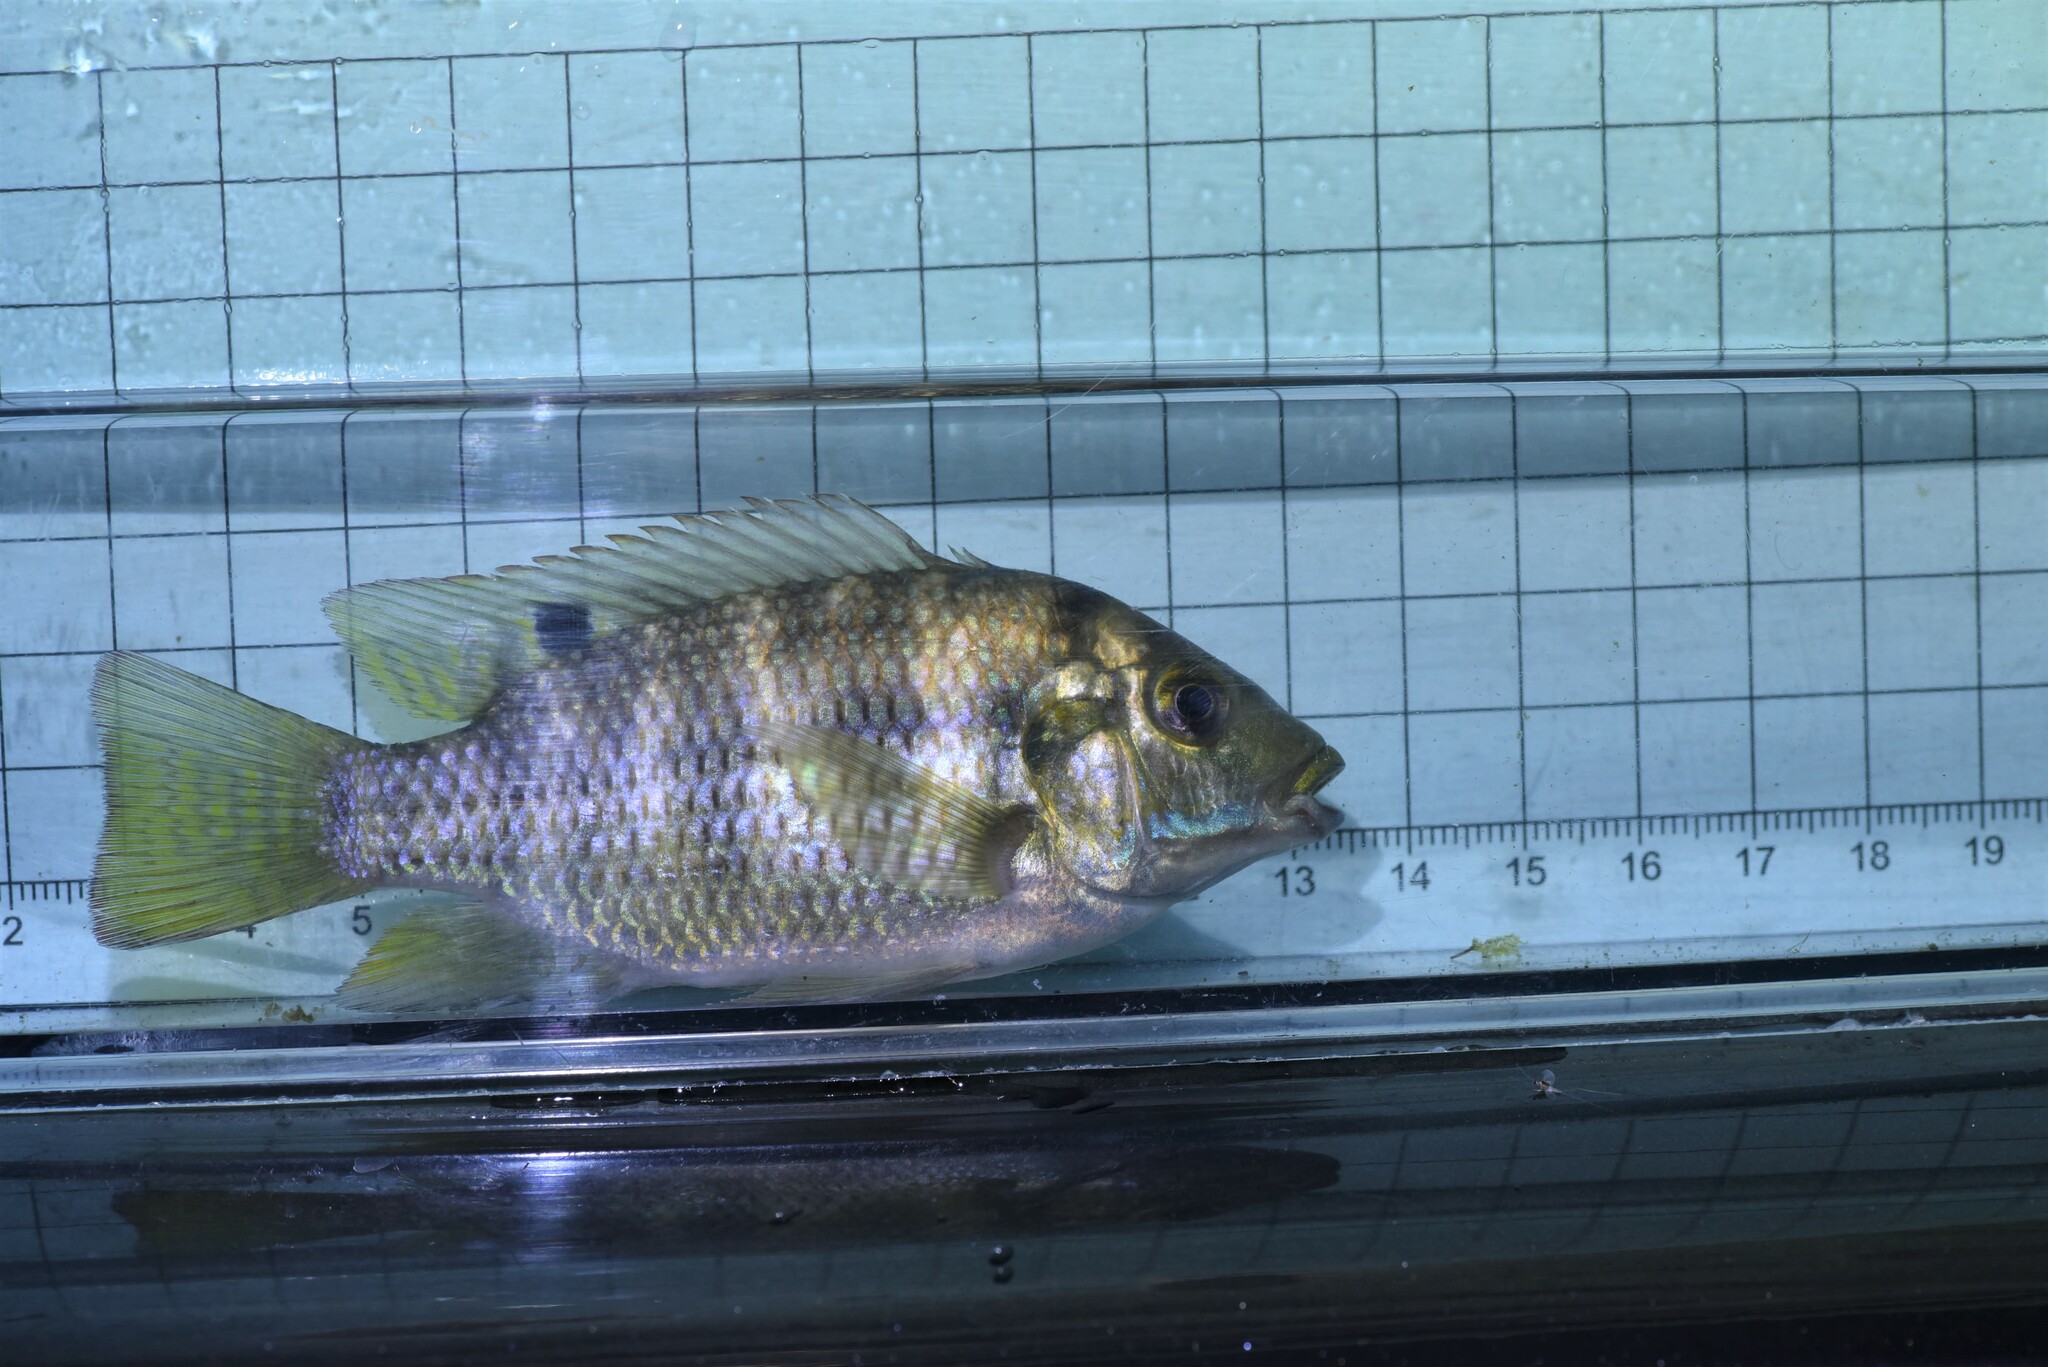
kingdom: Animalia
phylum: Chordata
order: Perciformes
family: Cichlidae
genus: Coptodon
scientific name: Coptodon zillii
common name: Redbelly tilapia
